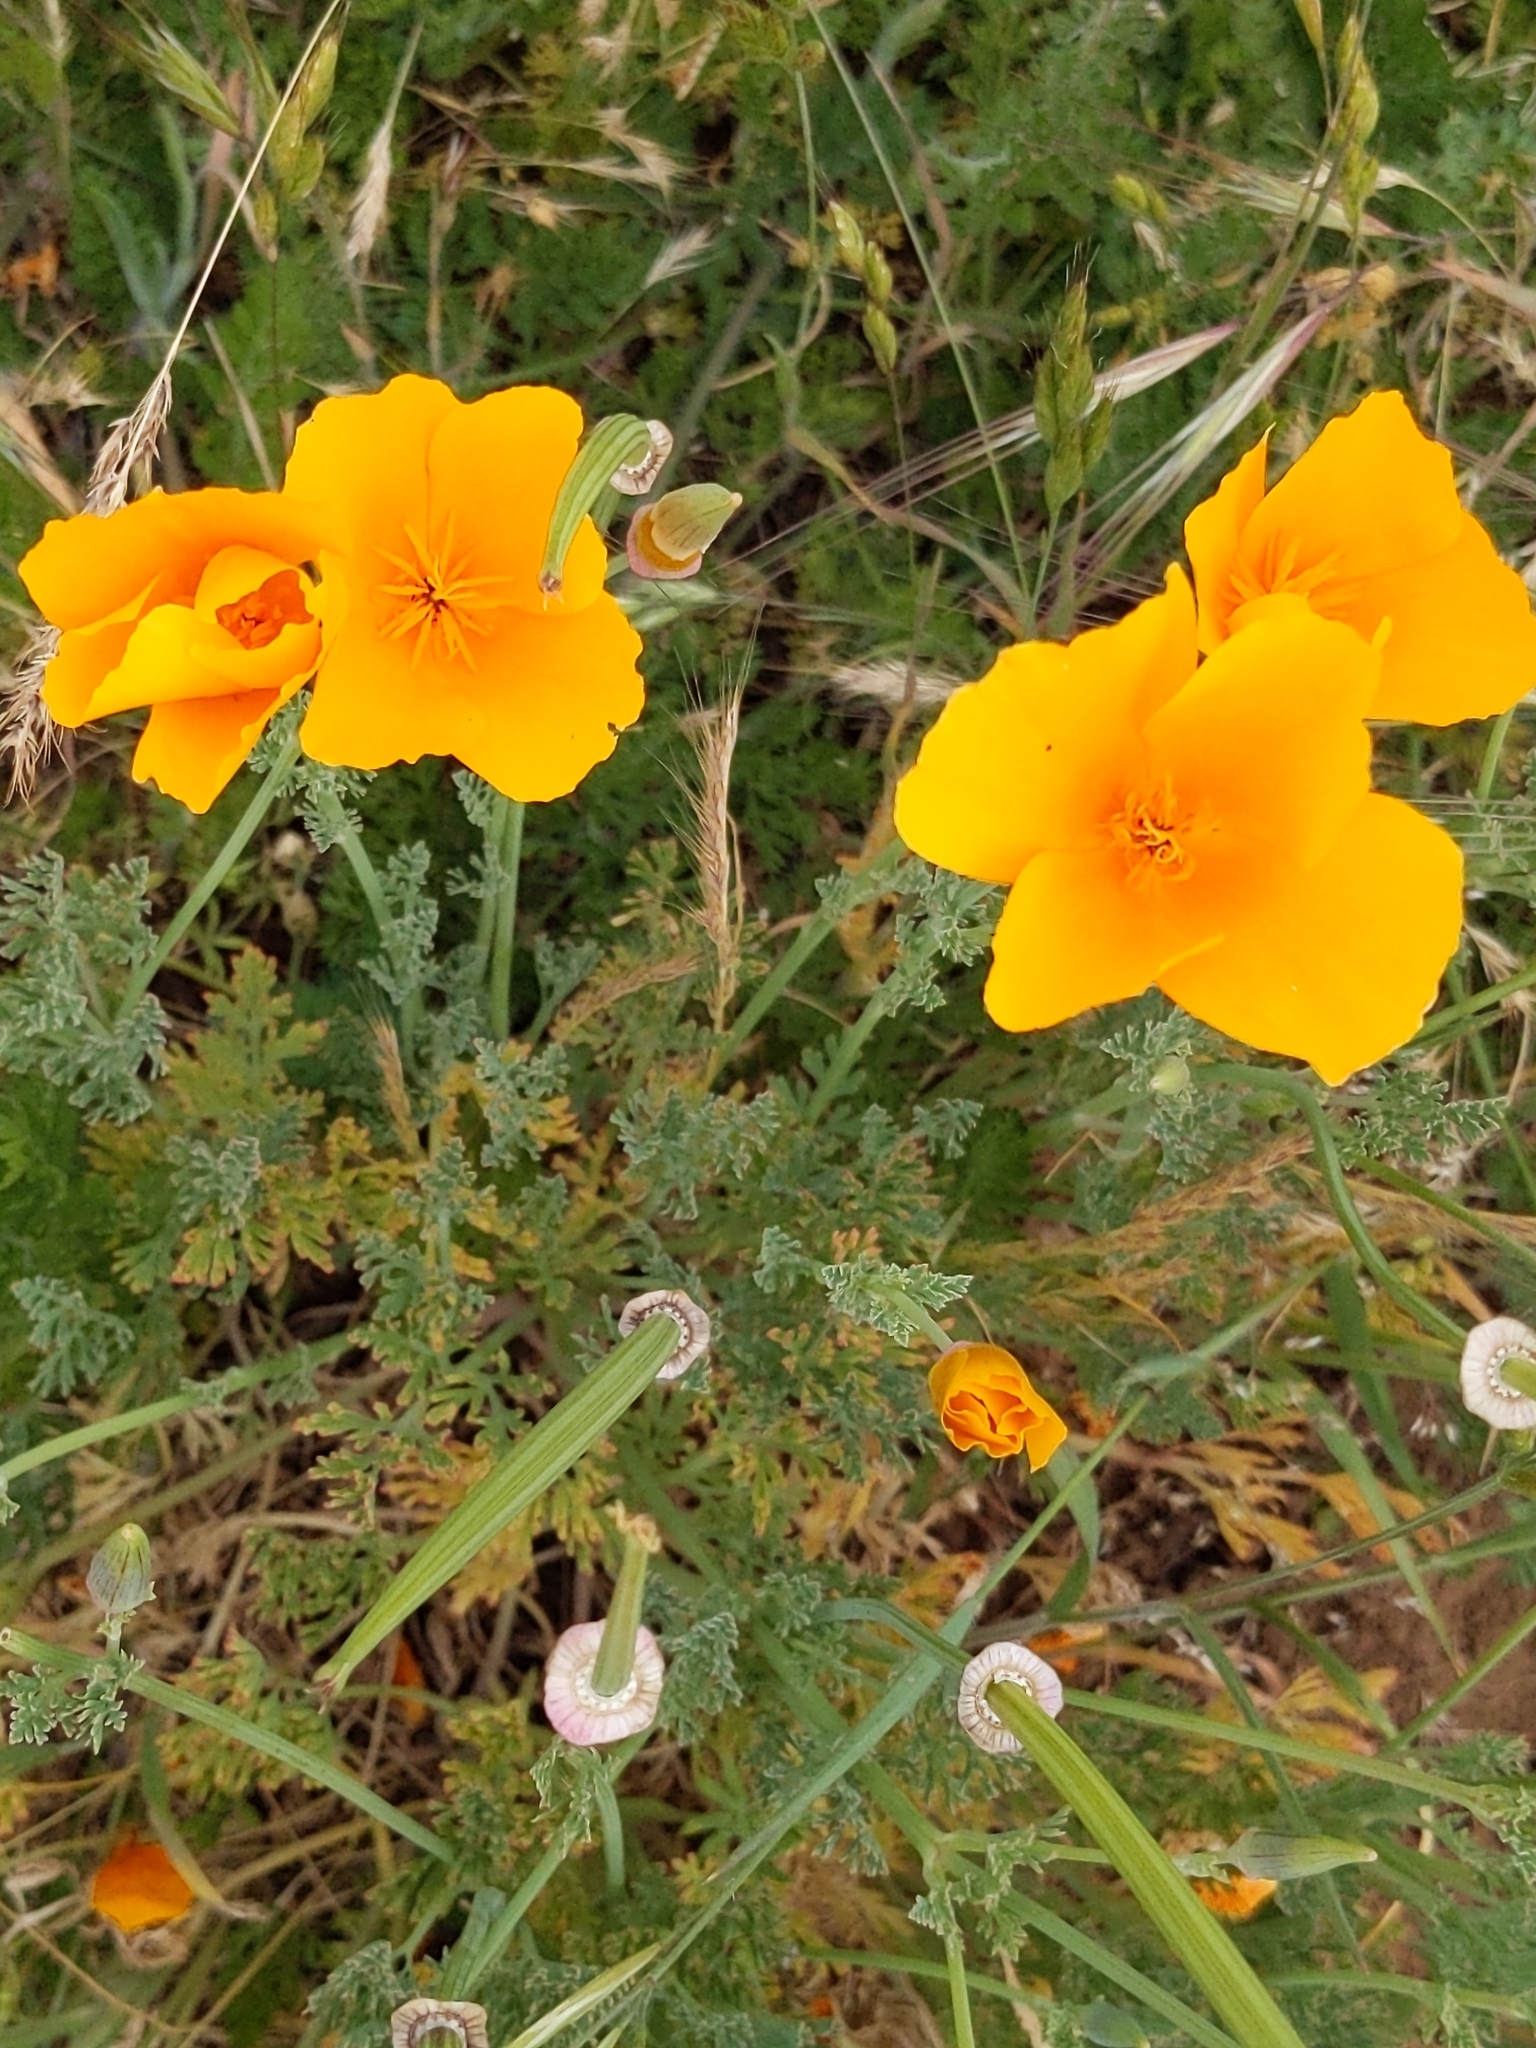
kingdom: Plantae
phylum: Tracheophyta
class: Magnoliopsida
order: Ranunculales
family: Papaveraceae
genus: Eschscholzia
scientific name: Eschscholzia californica
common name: California poppy
